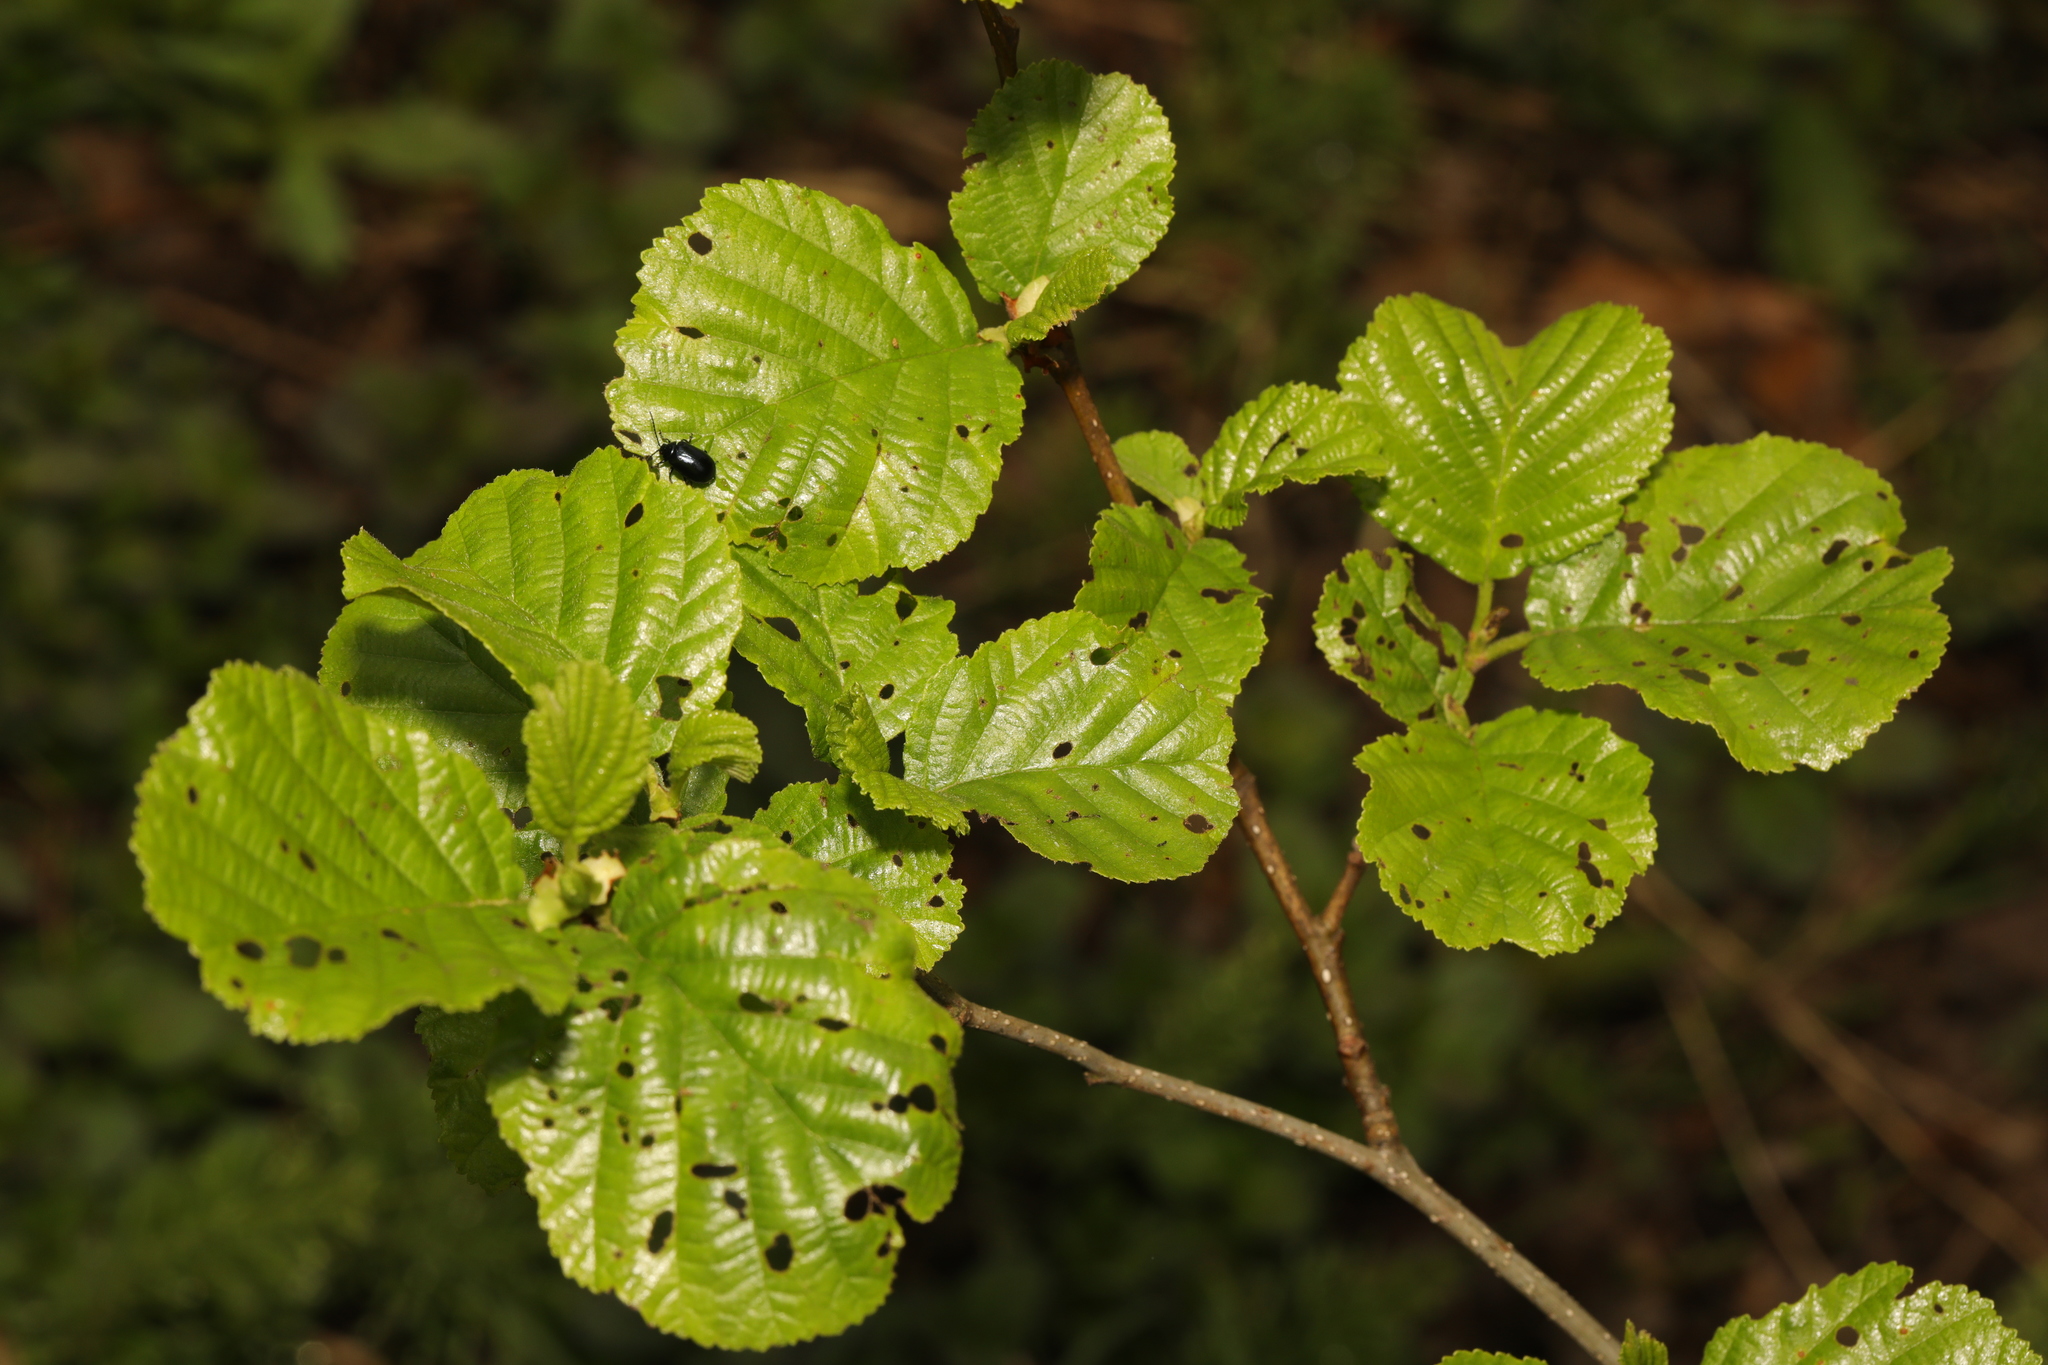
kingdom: Plantae
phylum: Tracheophyta
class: Magnoliopsida
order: Fagales
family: Betulaceae
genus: Alnus
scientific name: Alnus glutinosa
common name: Black alder
